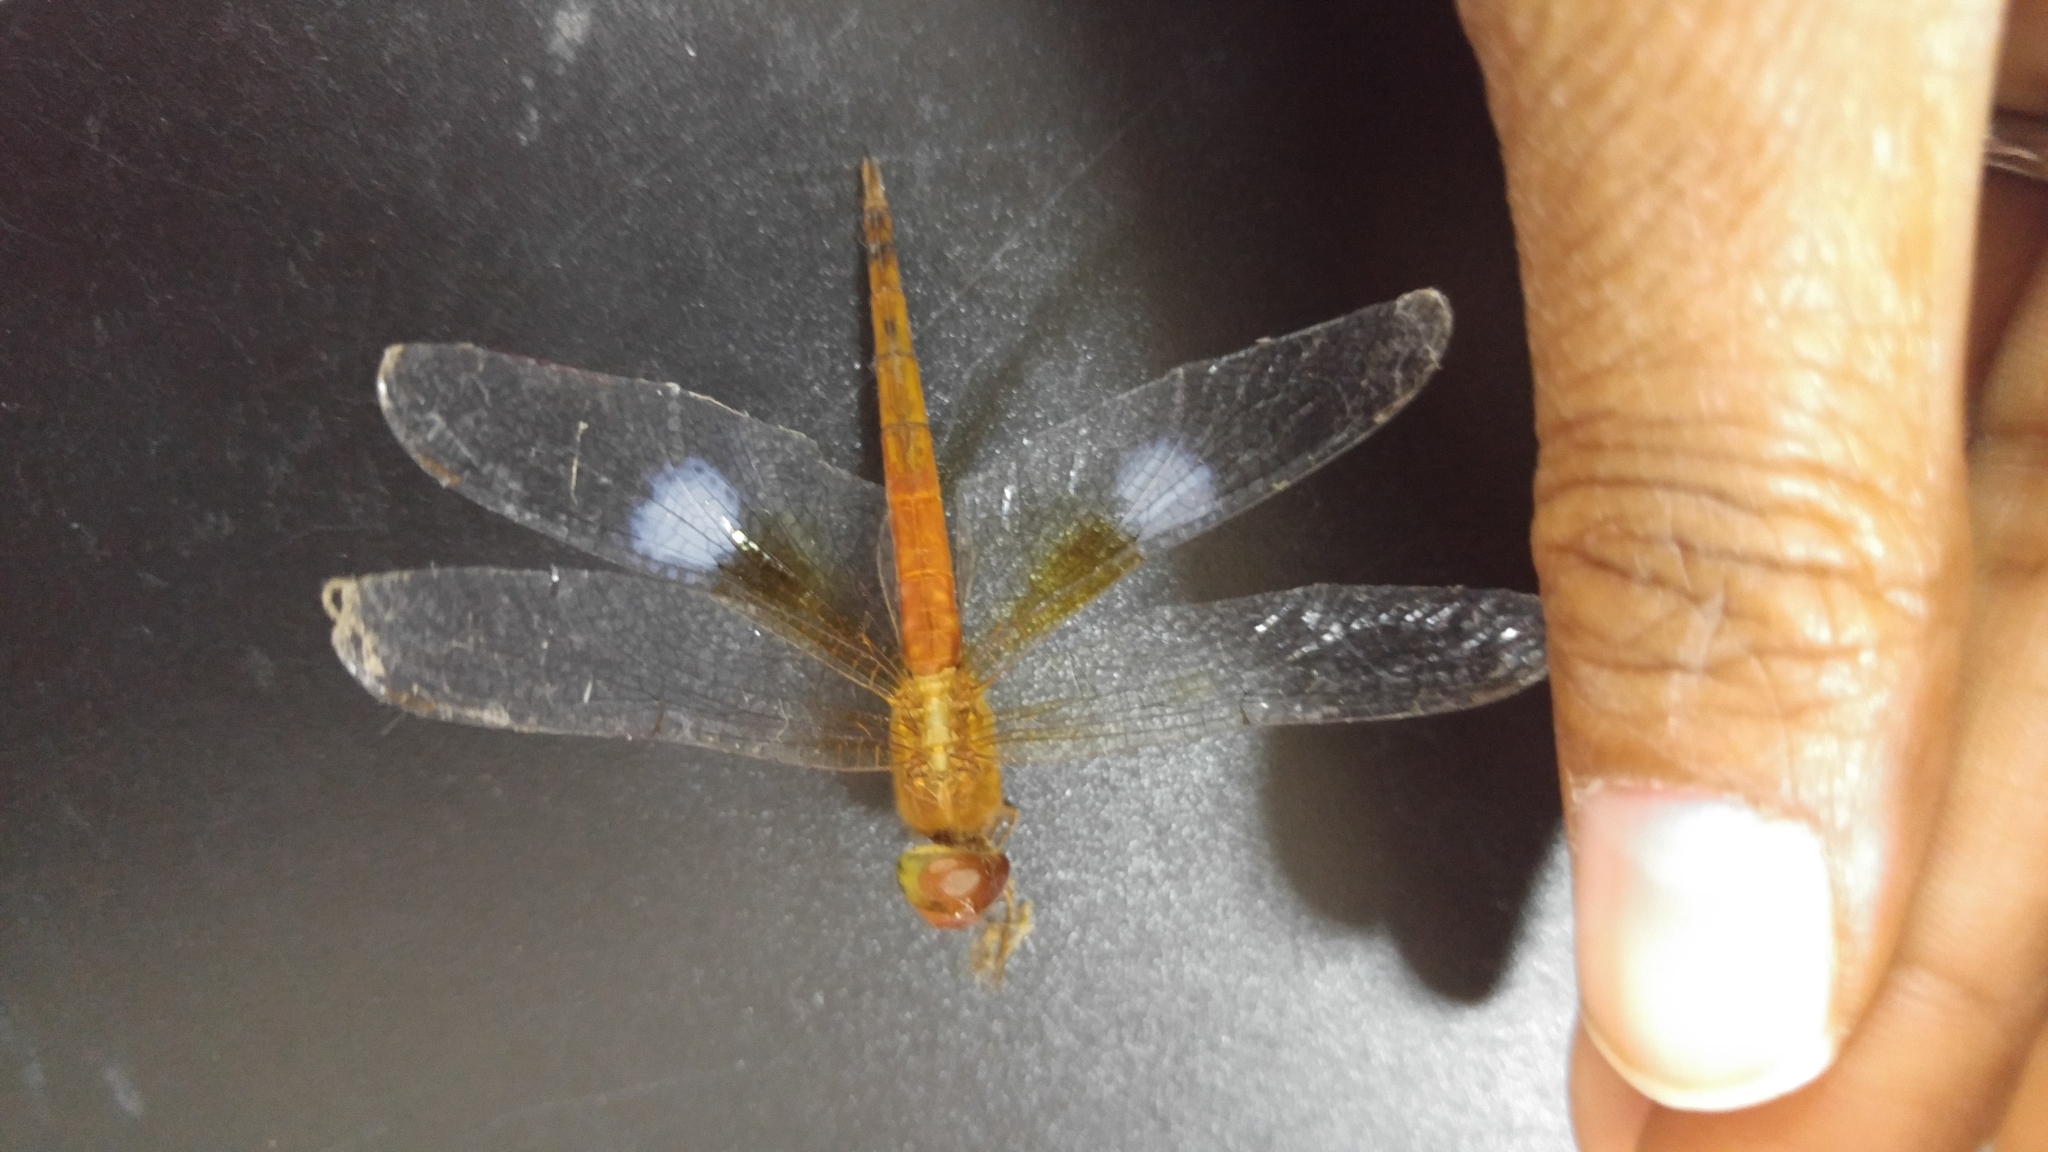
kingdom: Animalia
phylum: Arthropoda
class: Insecta
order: Odonata
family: Libellulidae
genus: Tholymis
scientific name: Tholymis tillarga
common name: Coral-tailed cloud wing
